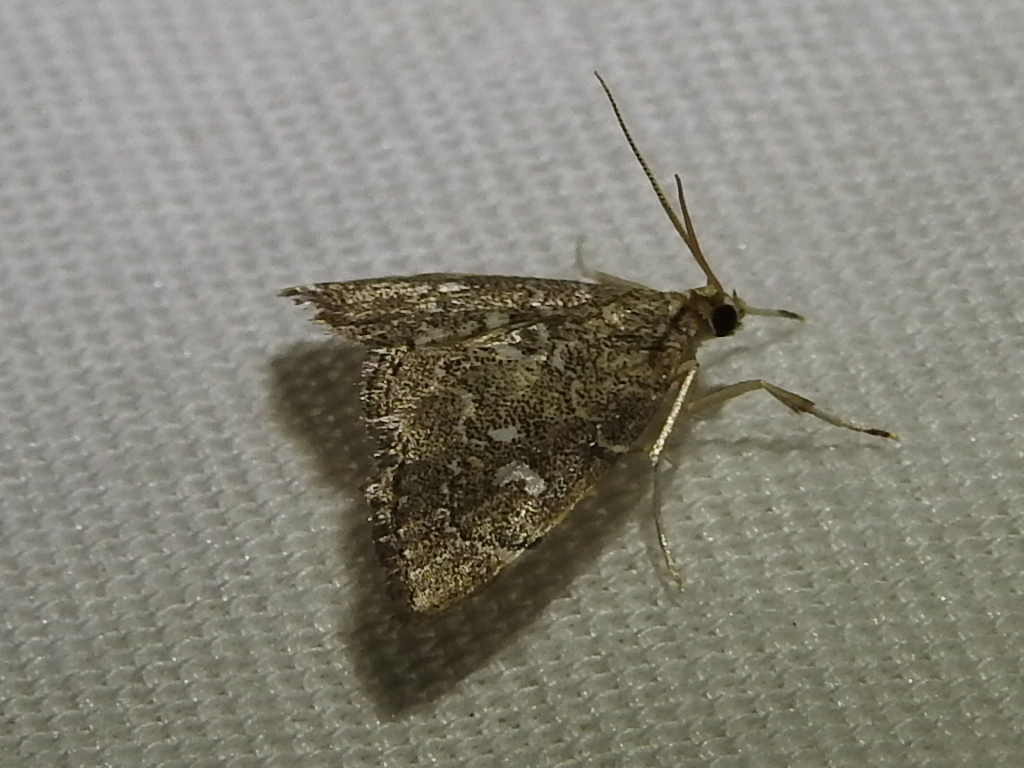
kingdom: Animalia
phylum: Arthropoda
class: Insecta
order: Lepidoptera
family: Crambidae
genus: Nephrogramma
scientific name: Nephrogramma reniculalis
